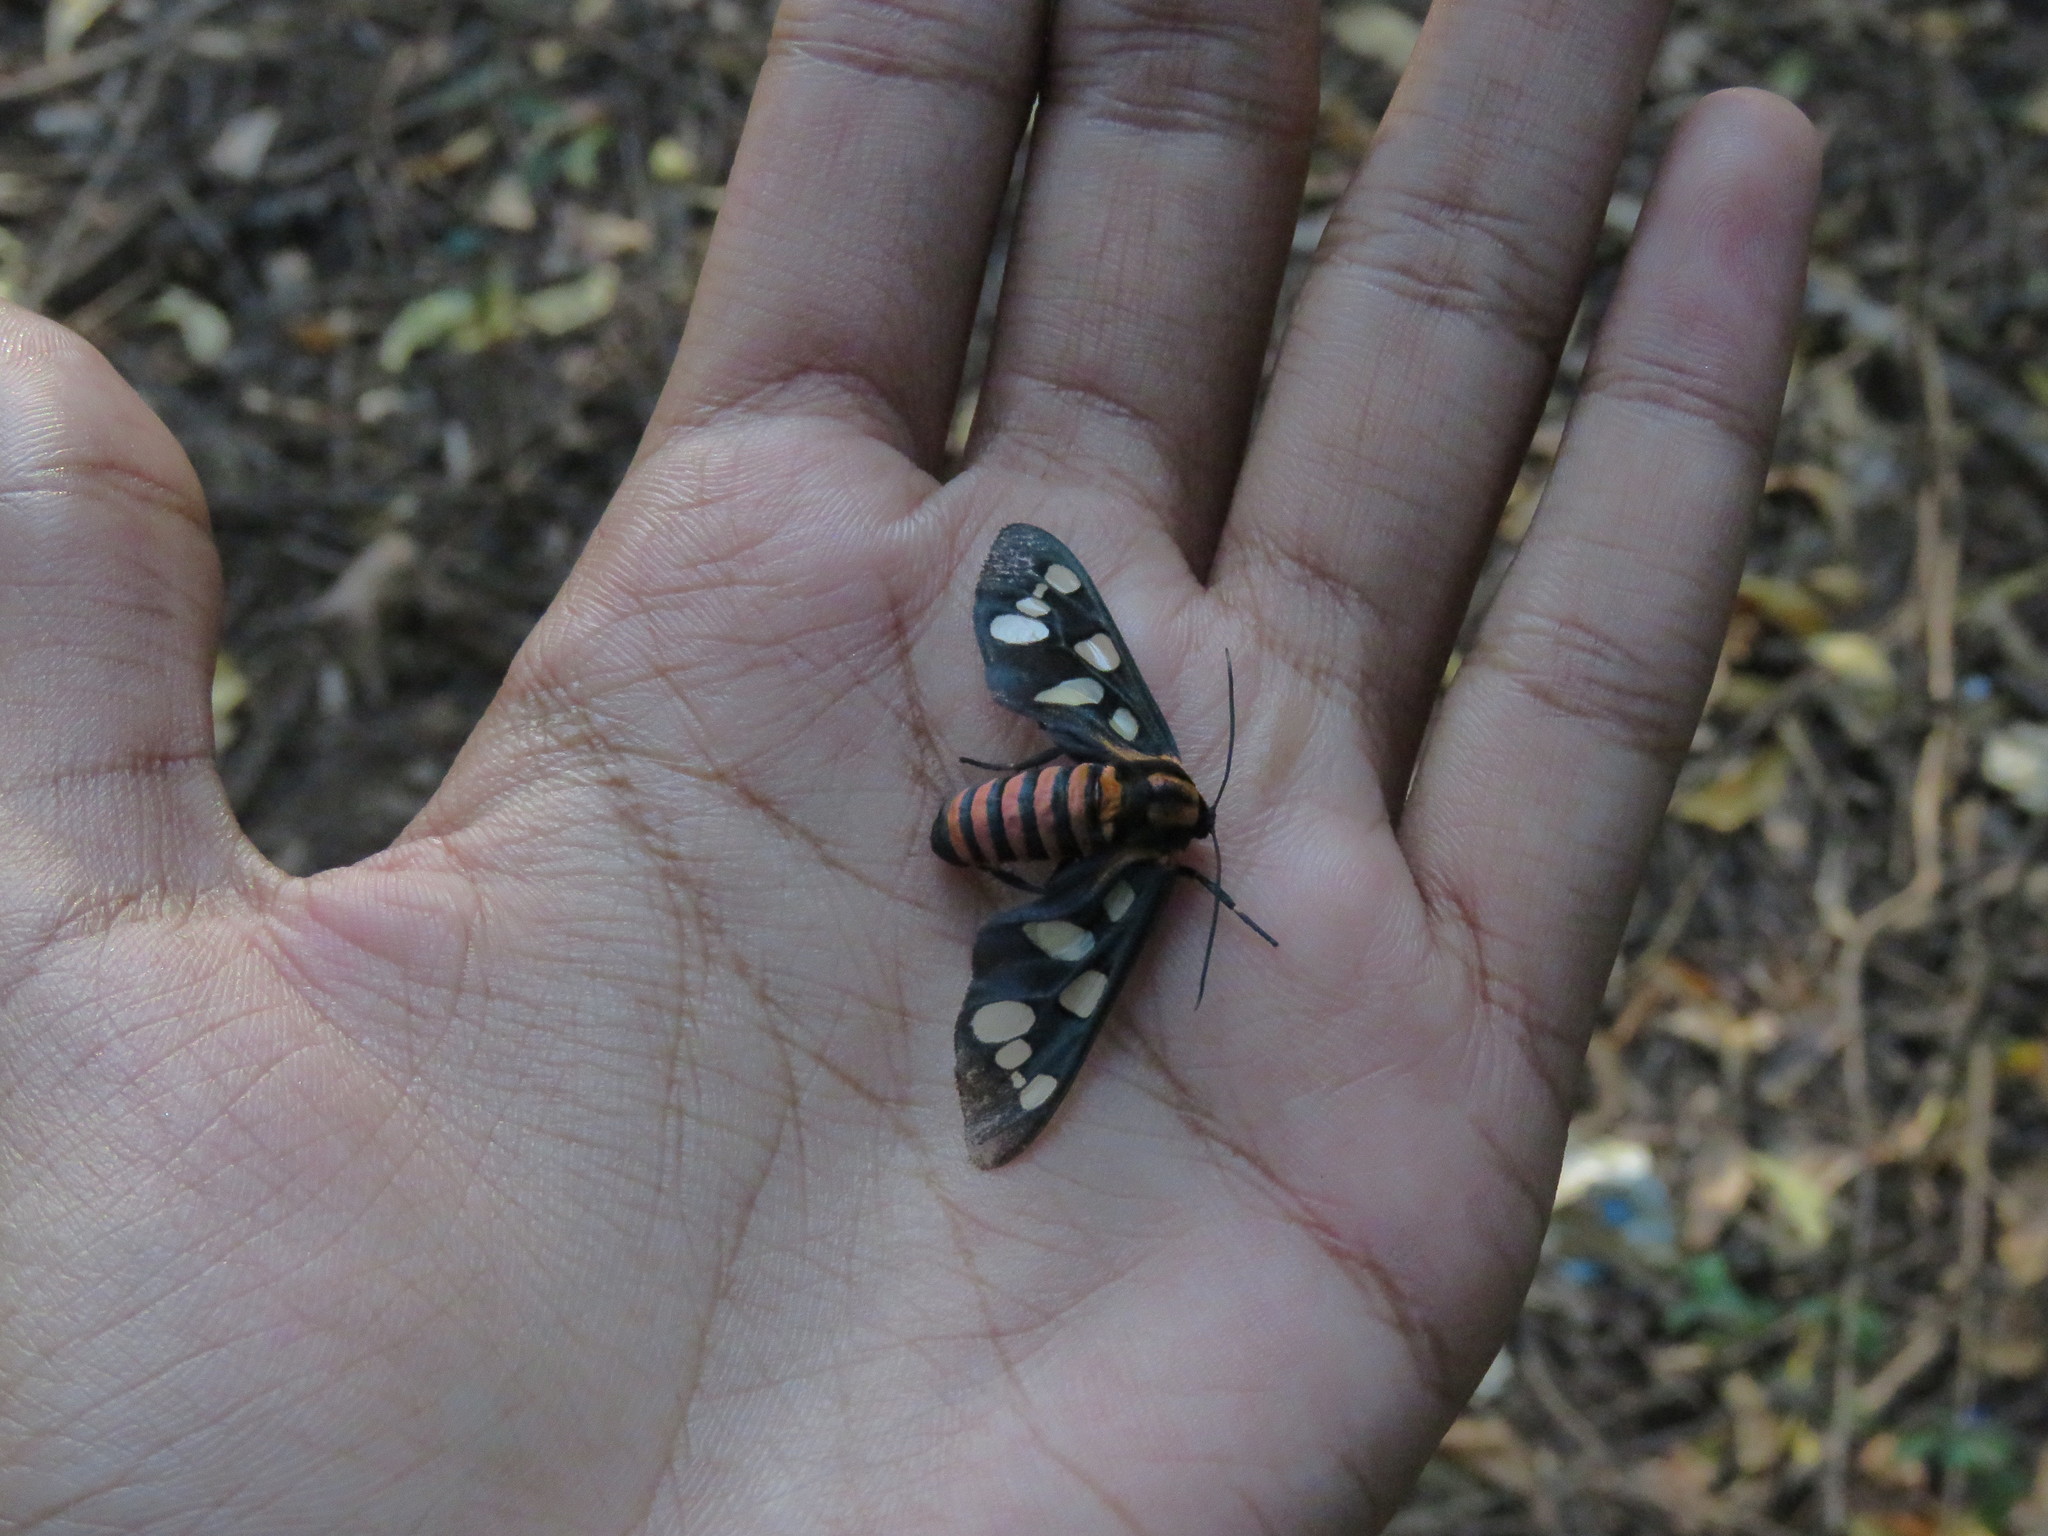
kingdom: Animalia
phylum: Arthropoda
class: Insecta
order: Lepidoptera
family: Erebidae
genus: Amata
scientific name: Amata passalis
